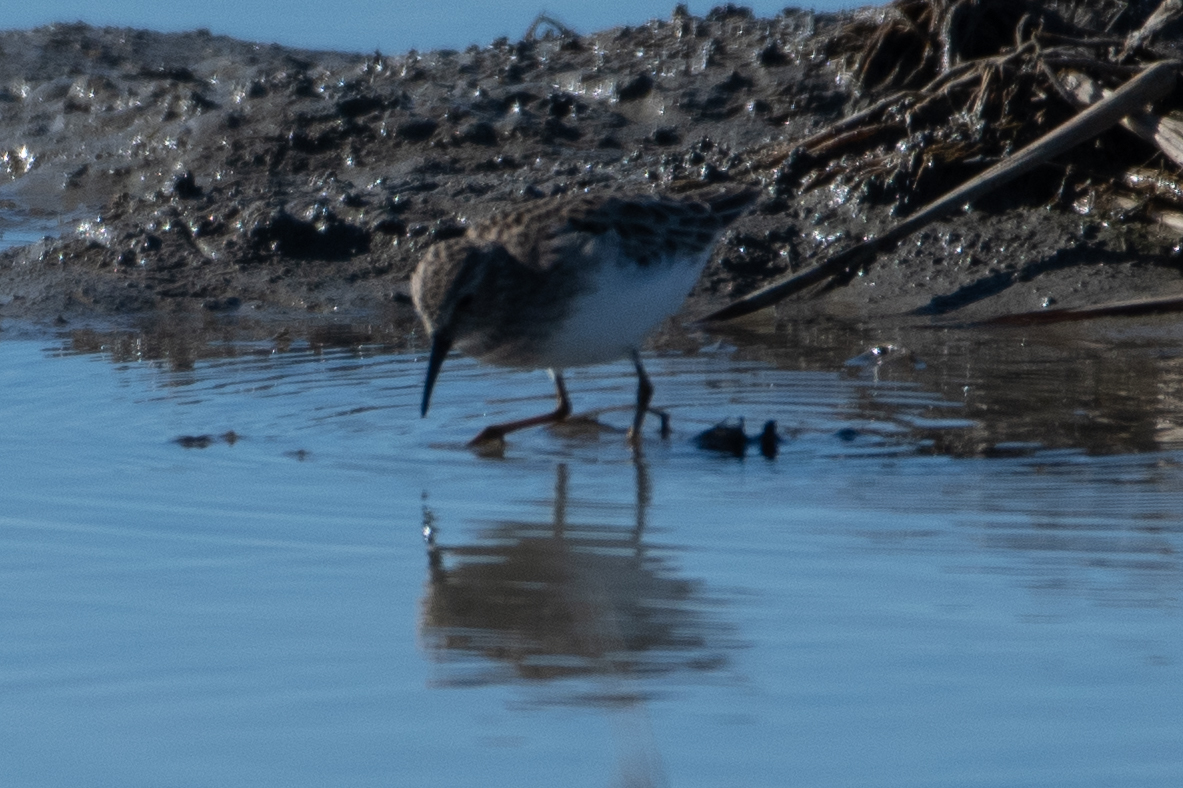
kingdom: Animalia
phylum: Chordata
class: Aves
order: Charadriiformes
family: Scolopacidae
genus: Calidris
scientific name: Calidris minutilla
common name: Least sandpiper
